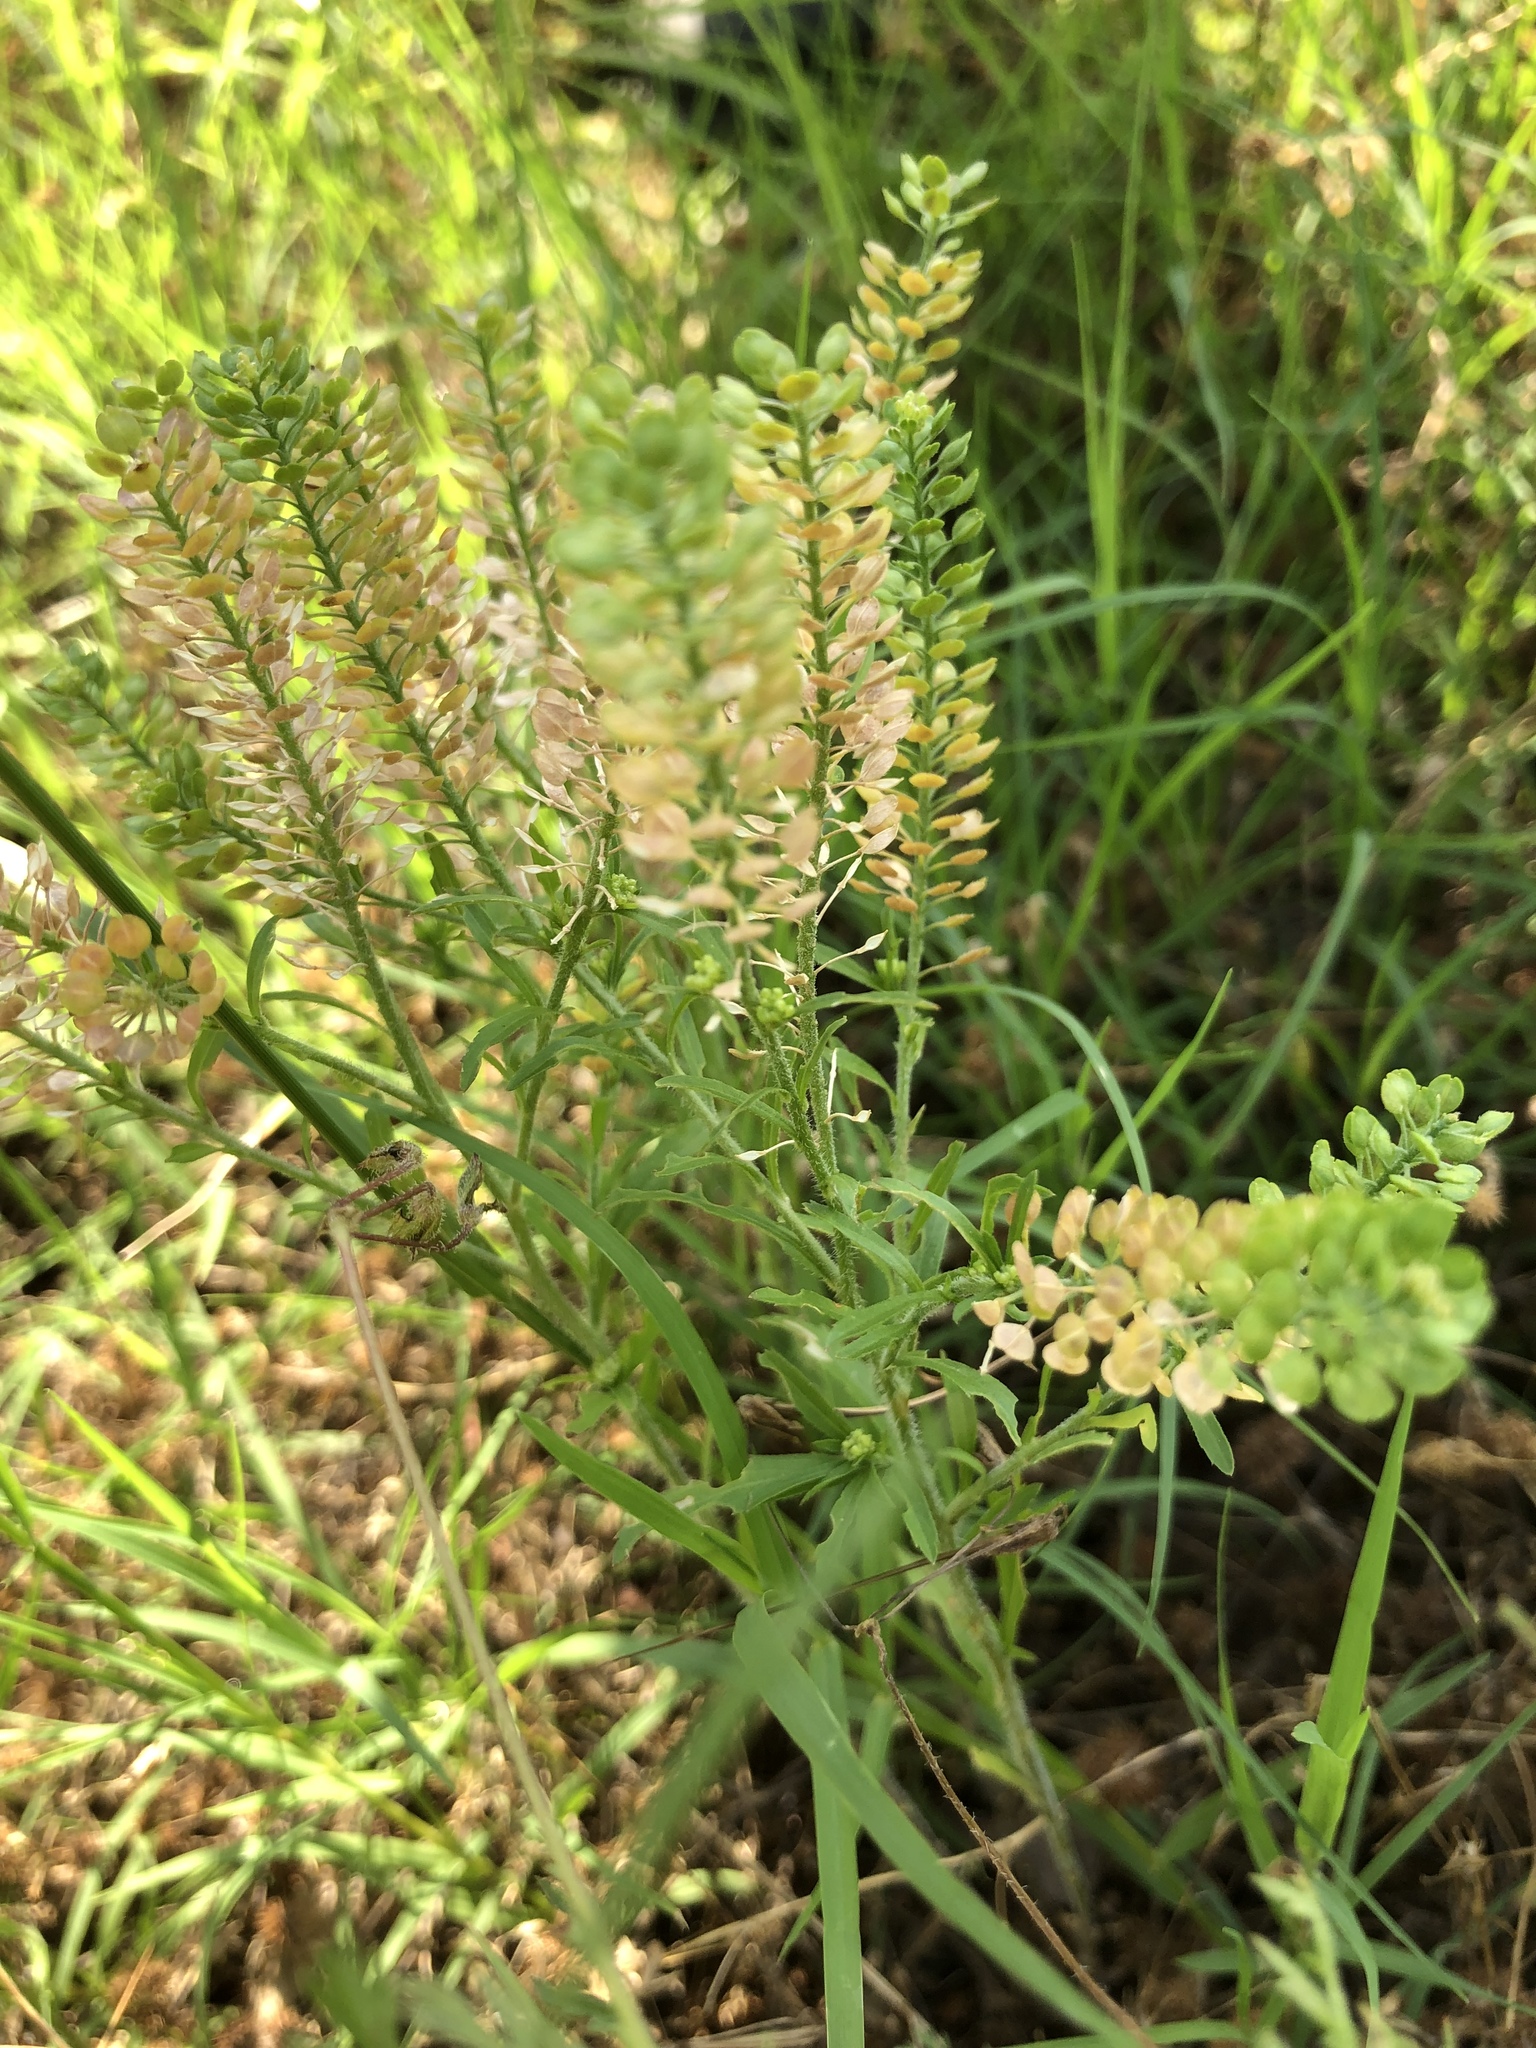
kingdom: Plantae
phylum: Tracheophyta
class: Magnoliopsida
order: Brassicales
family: Brassicaceae
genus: Lepidium
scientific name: Lepidium virginicum
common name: Least pepperwort
